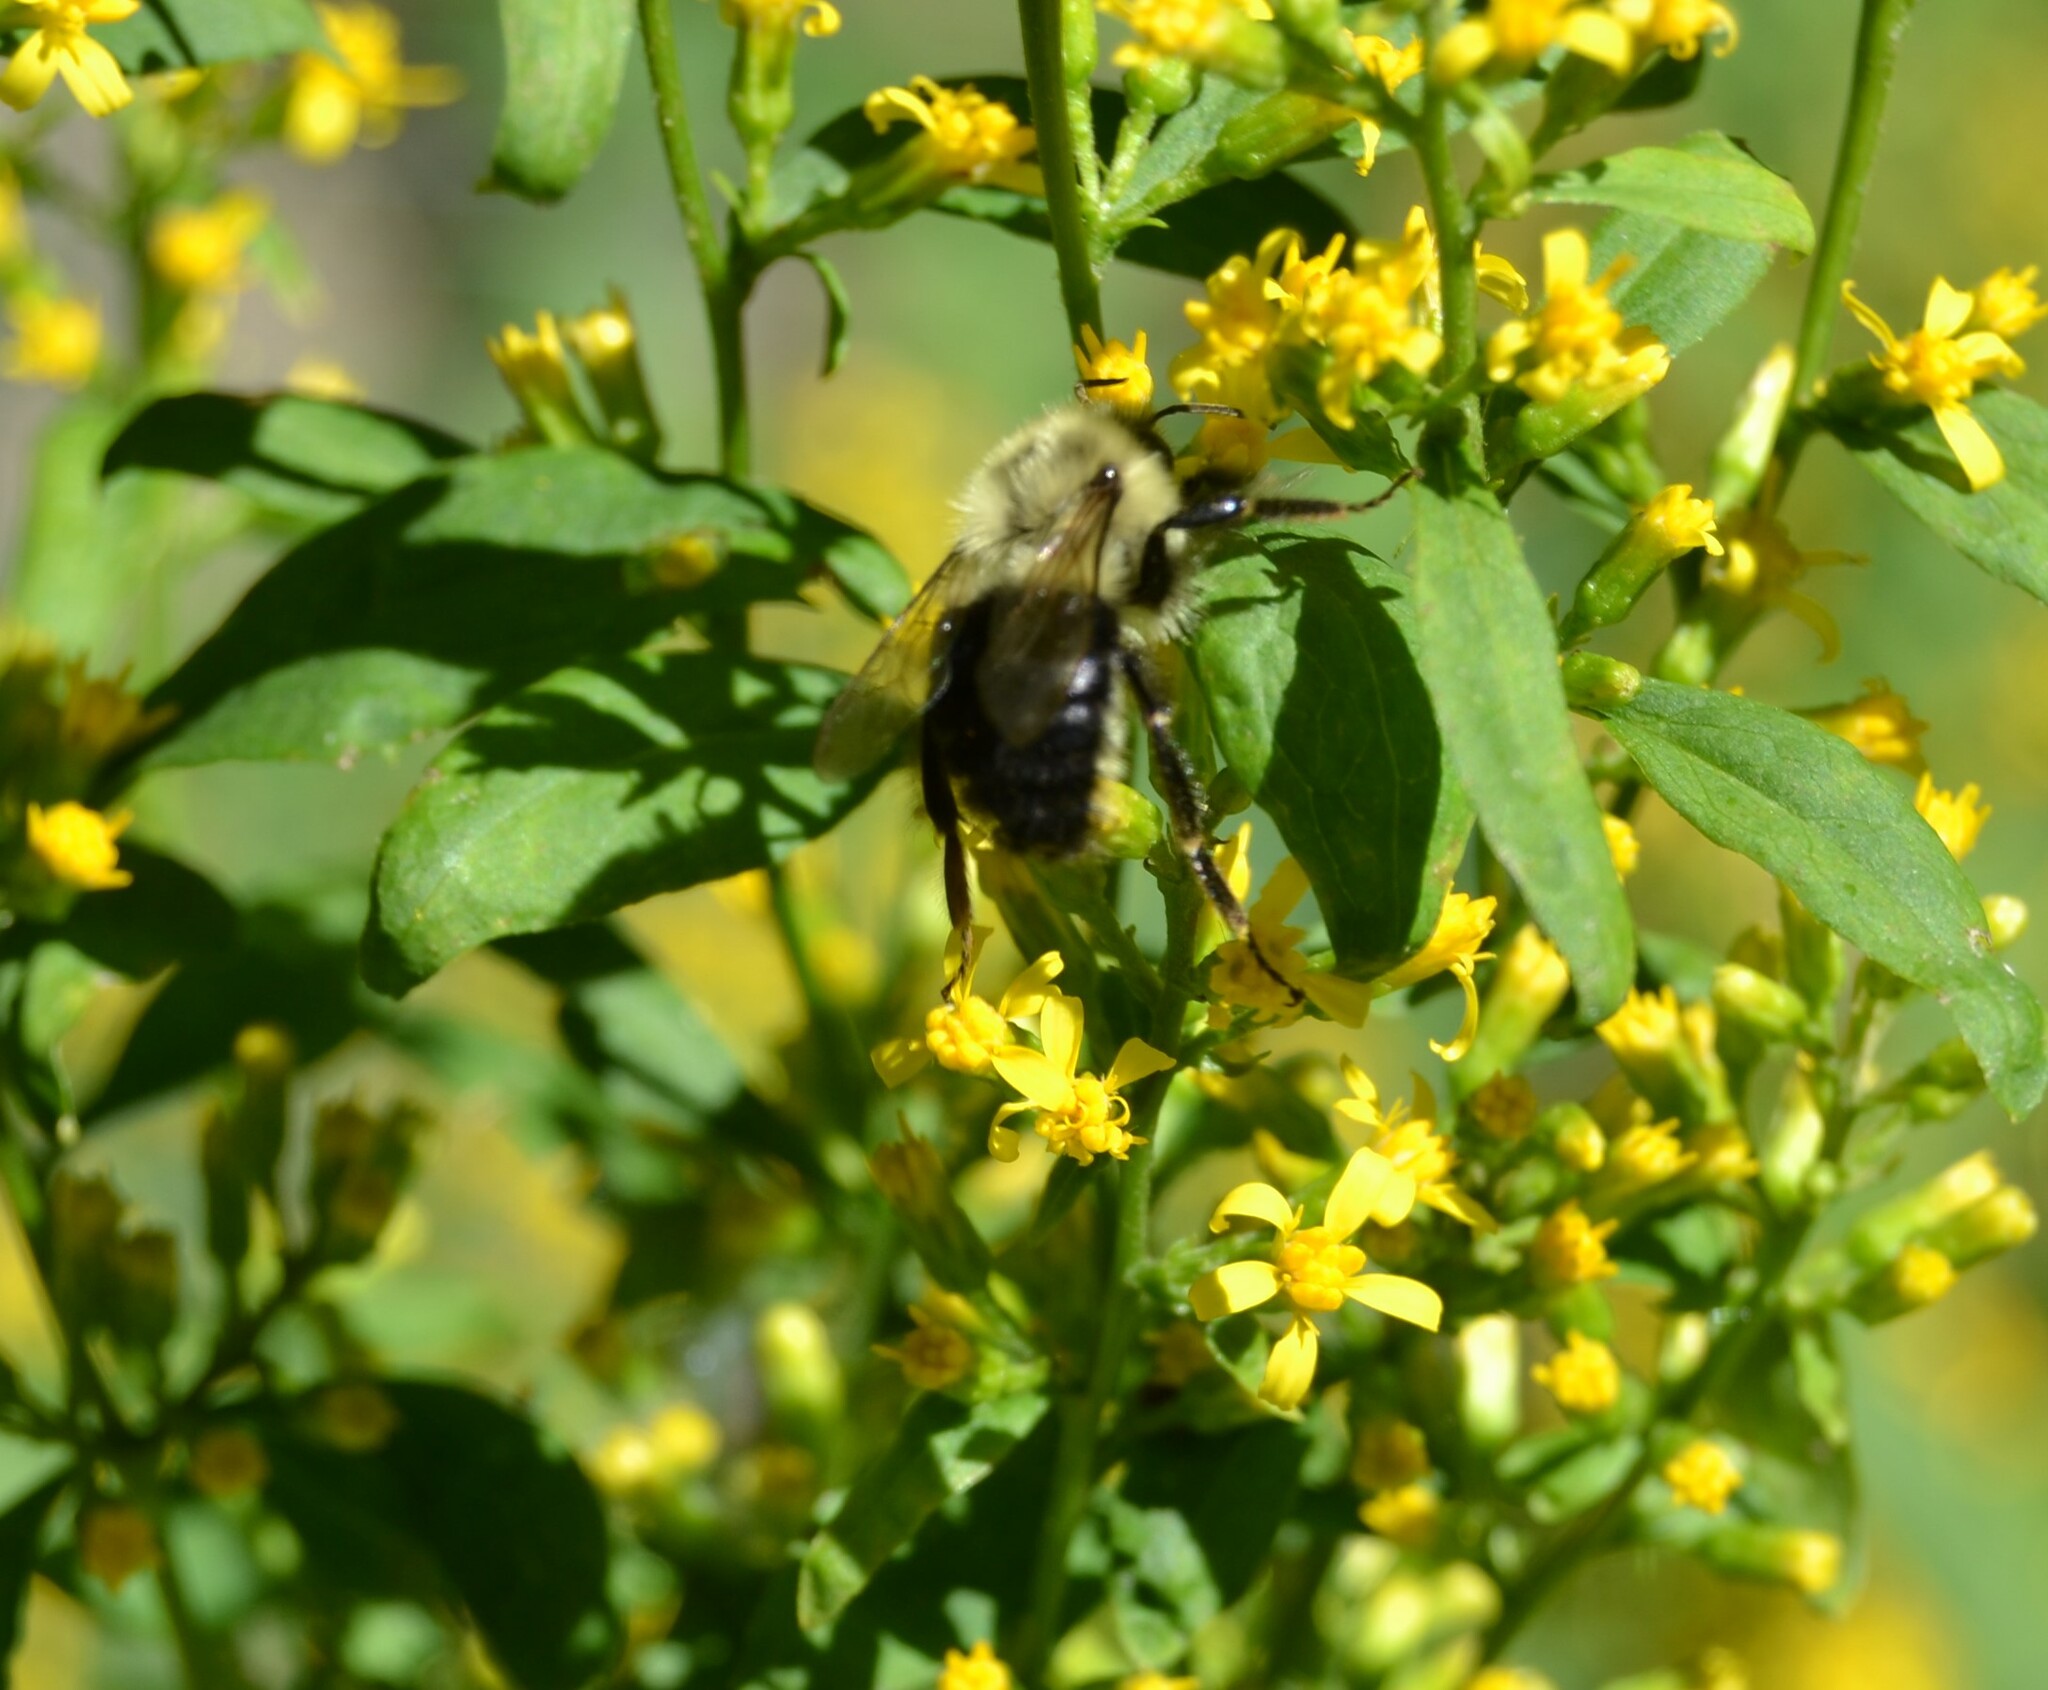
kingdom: Animalia
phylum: Arthropoda
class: Insecta
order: Hymenoptera
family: Apidae
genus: Bombus
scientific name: Bombus impatiens
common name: Common eastern bumble bee
